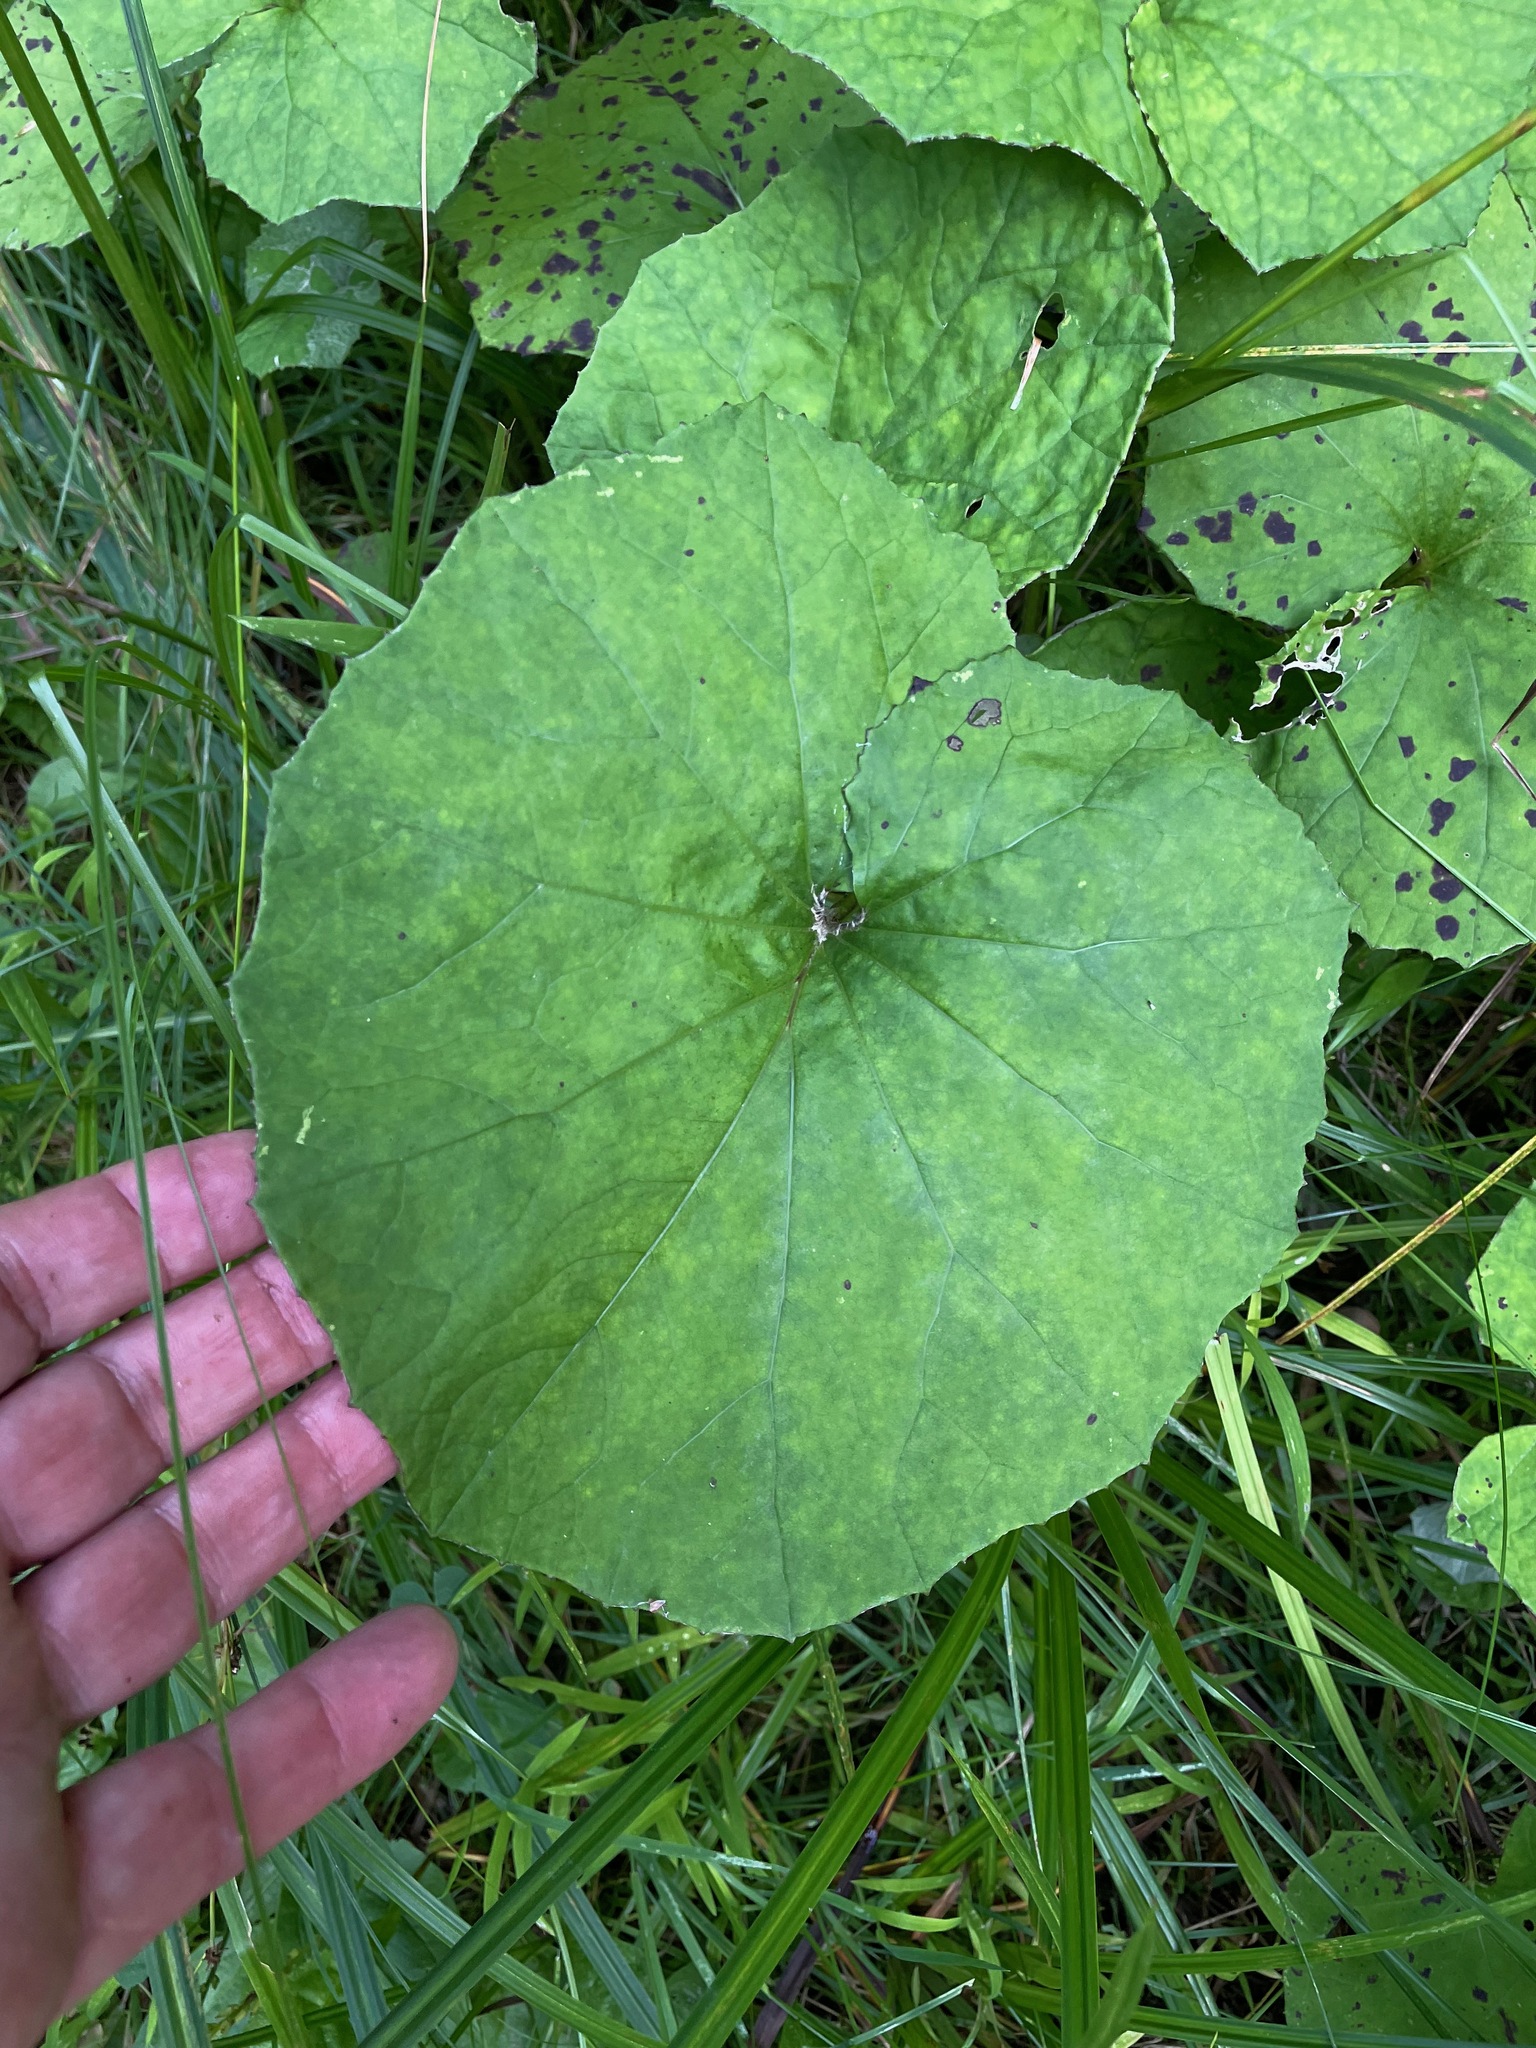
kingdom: Plantae
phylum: Tracheophyta
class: Magnoliopsida
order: Asterales
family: Asteraceae
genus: Tussilago
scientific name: Tussilago farfara
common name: Coltsfoot
